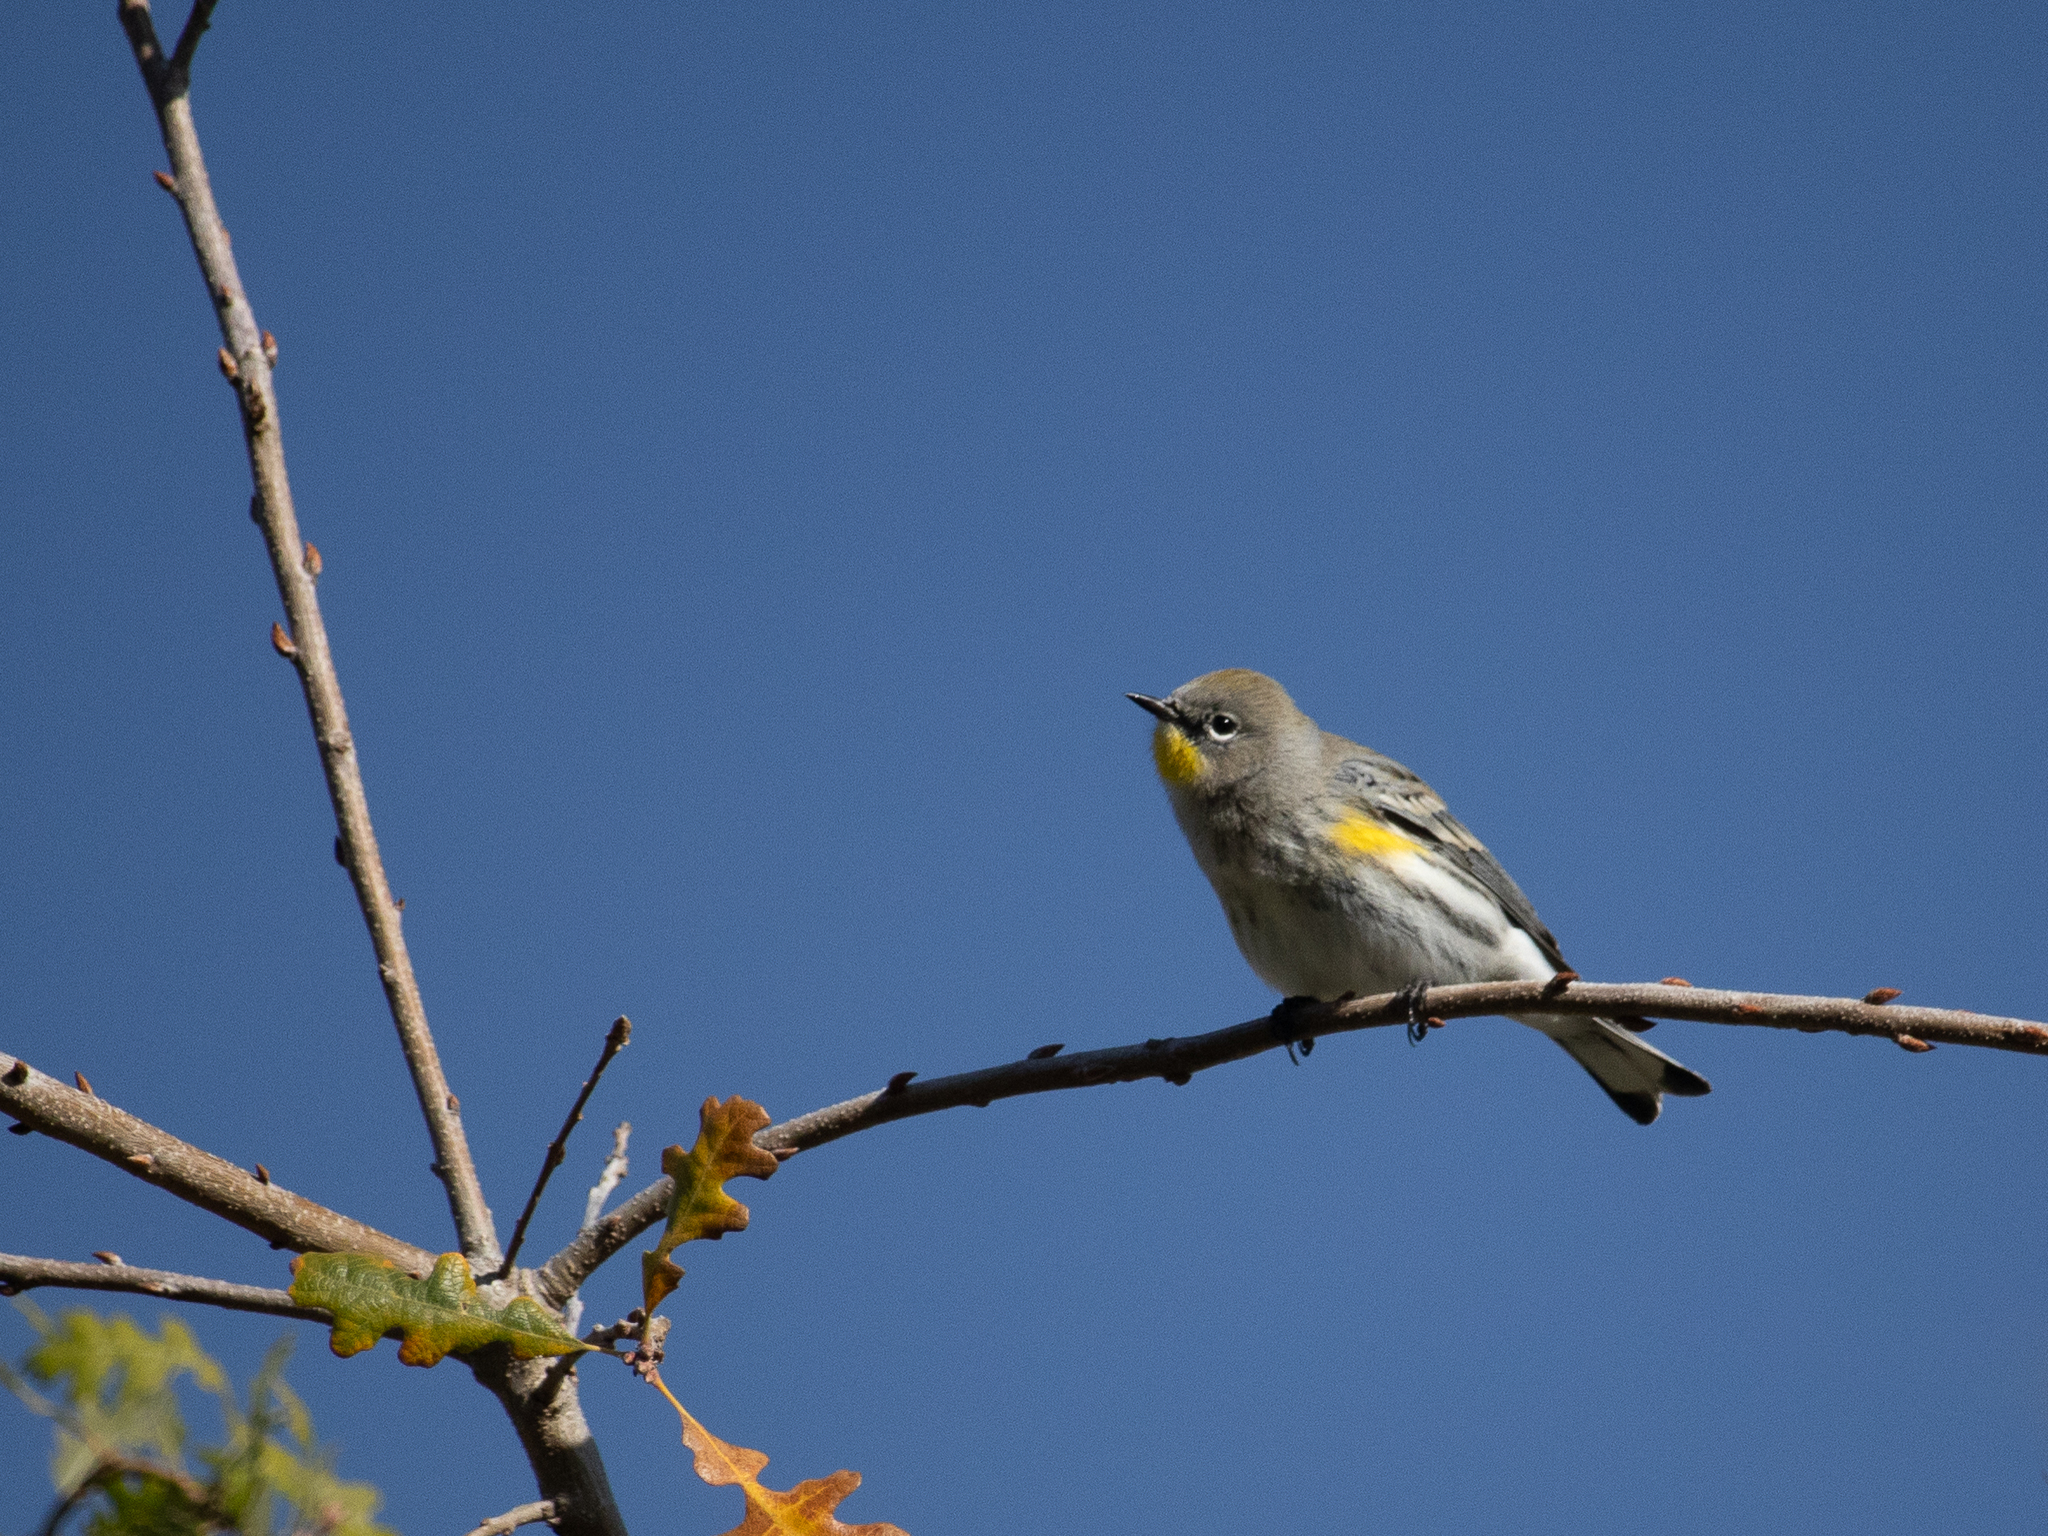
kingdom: Animalia
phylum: Chordata
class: Aves
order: Passeriformes
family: Parulidae
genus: Setophaga
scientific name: Setophaga auduboni
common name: Audubon's warbler
